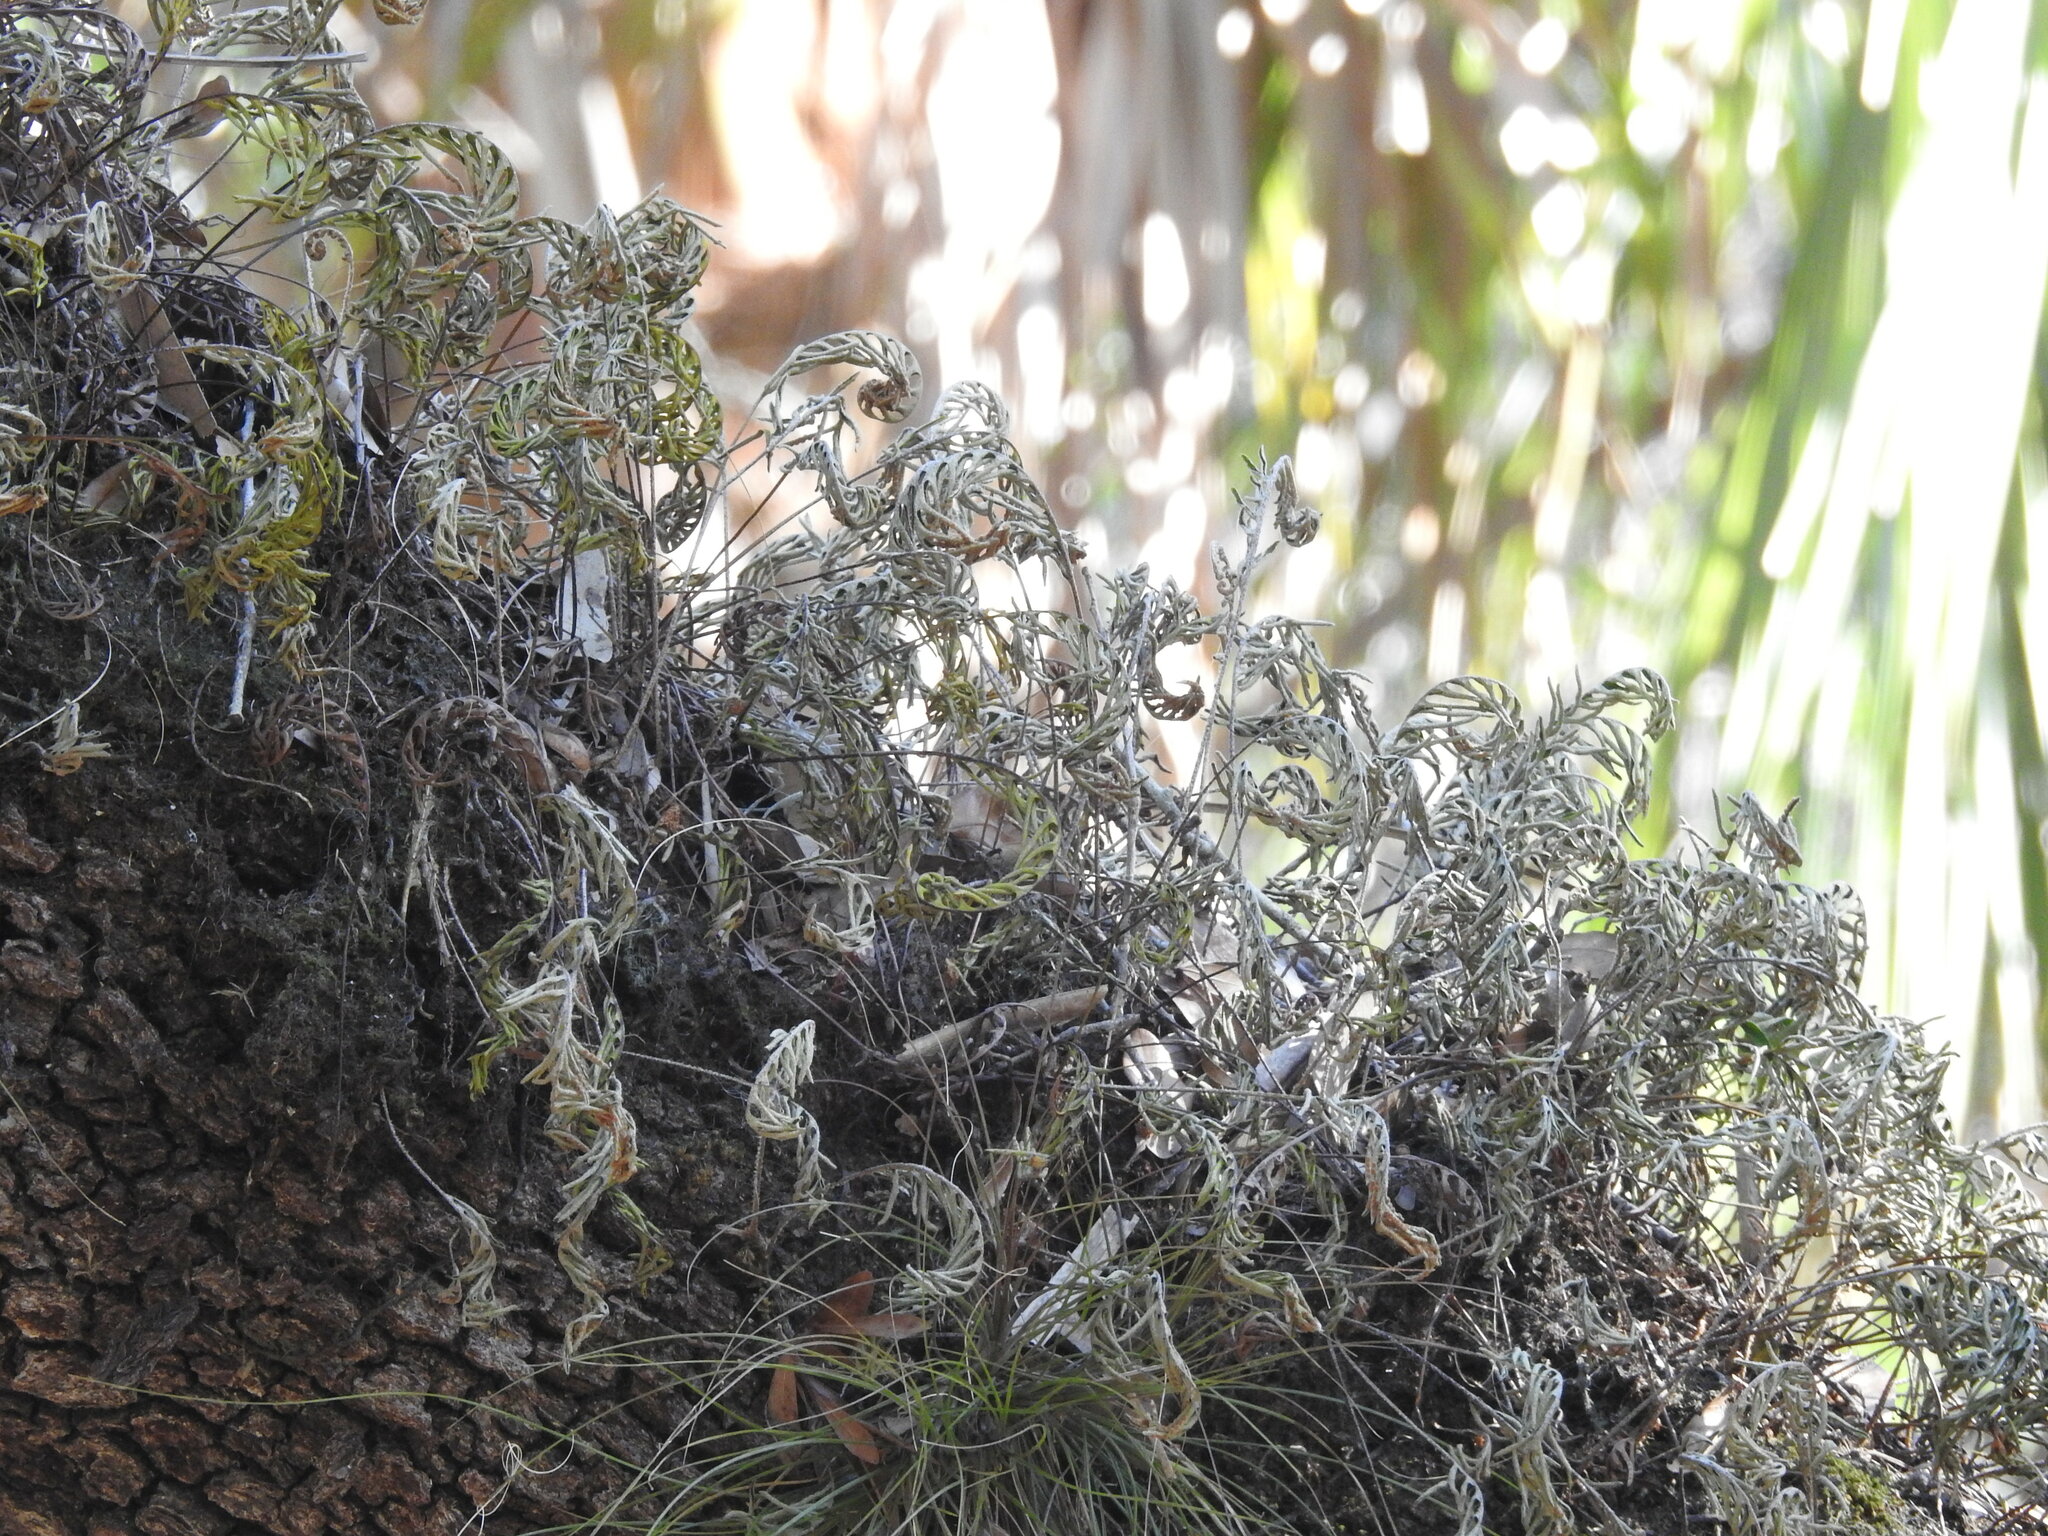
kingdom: Plantae
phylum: Tracheophyta
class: Polypodiopsida
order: Polypodiales
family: Polypodiaceae
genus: Pleopeltis
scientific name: Pleopeltis michauxiana
